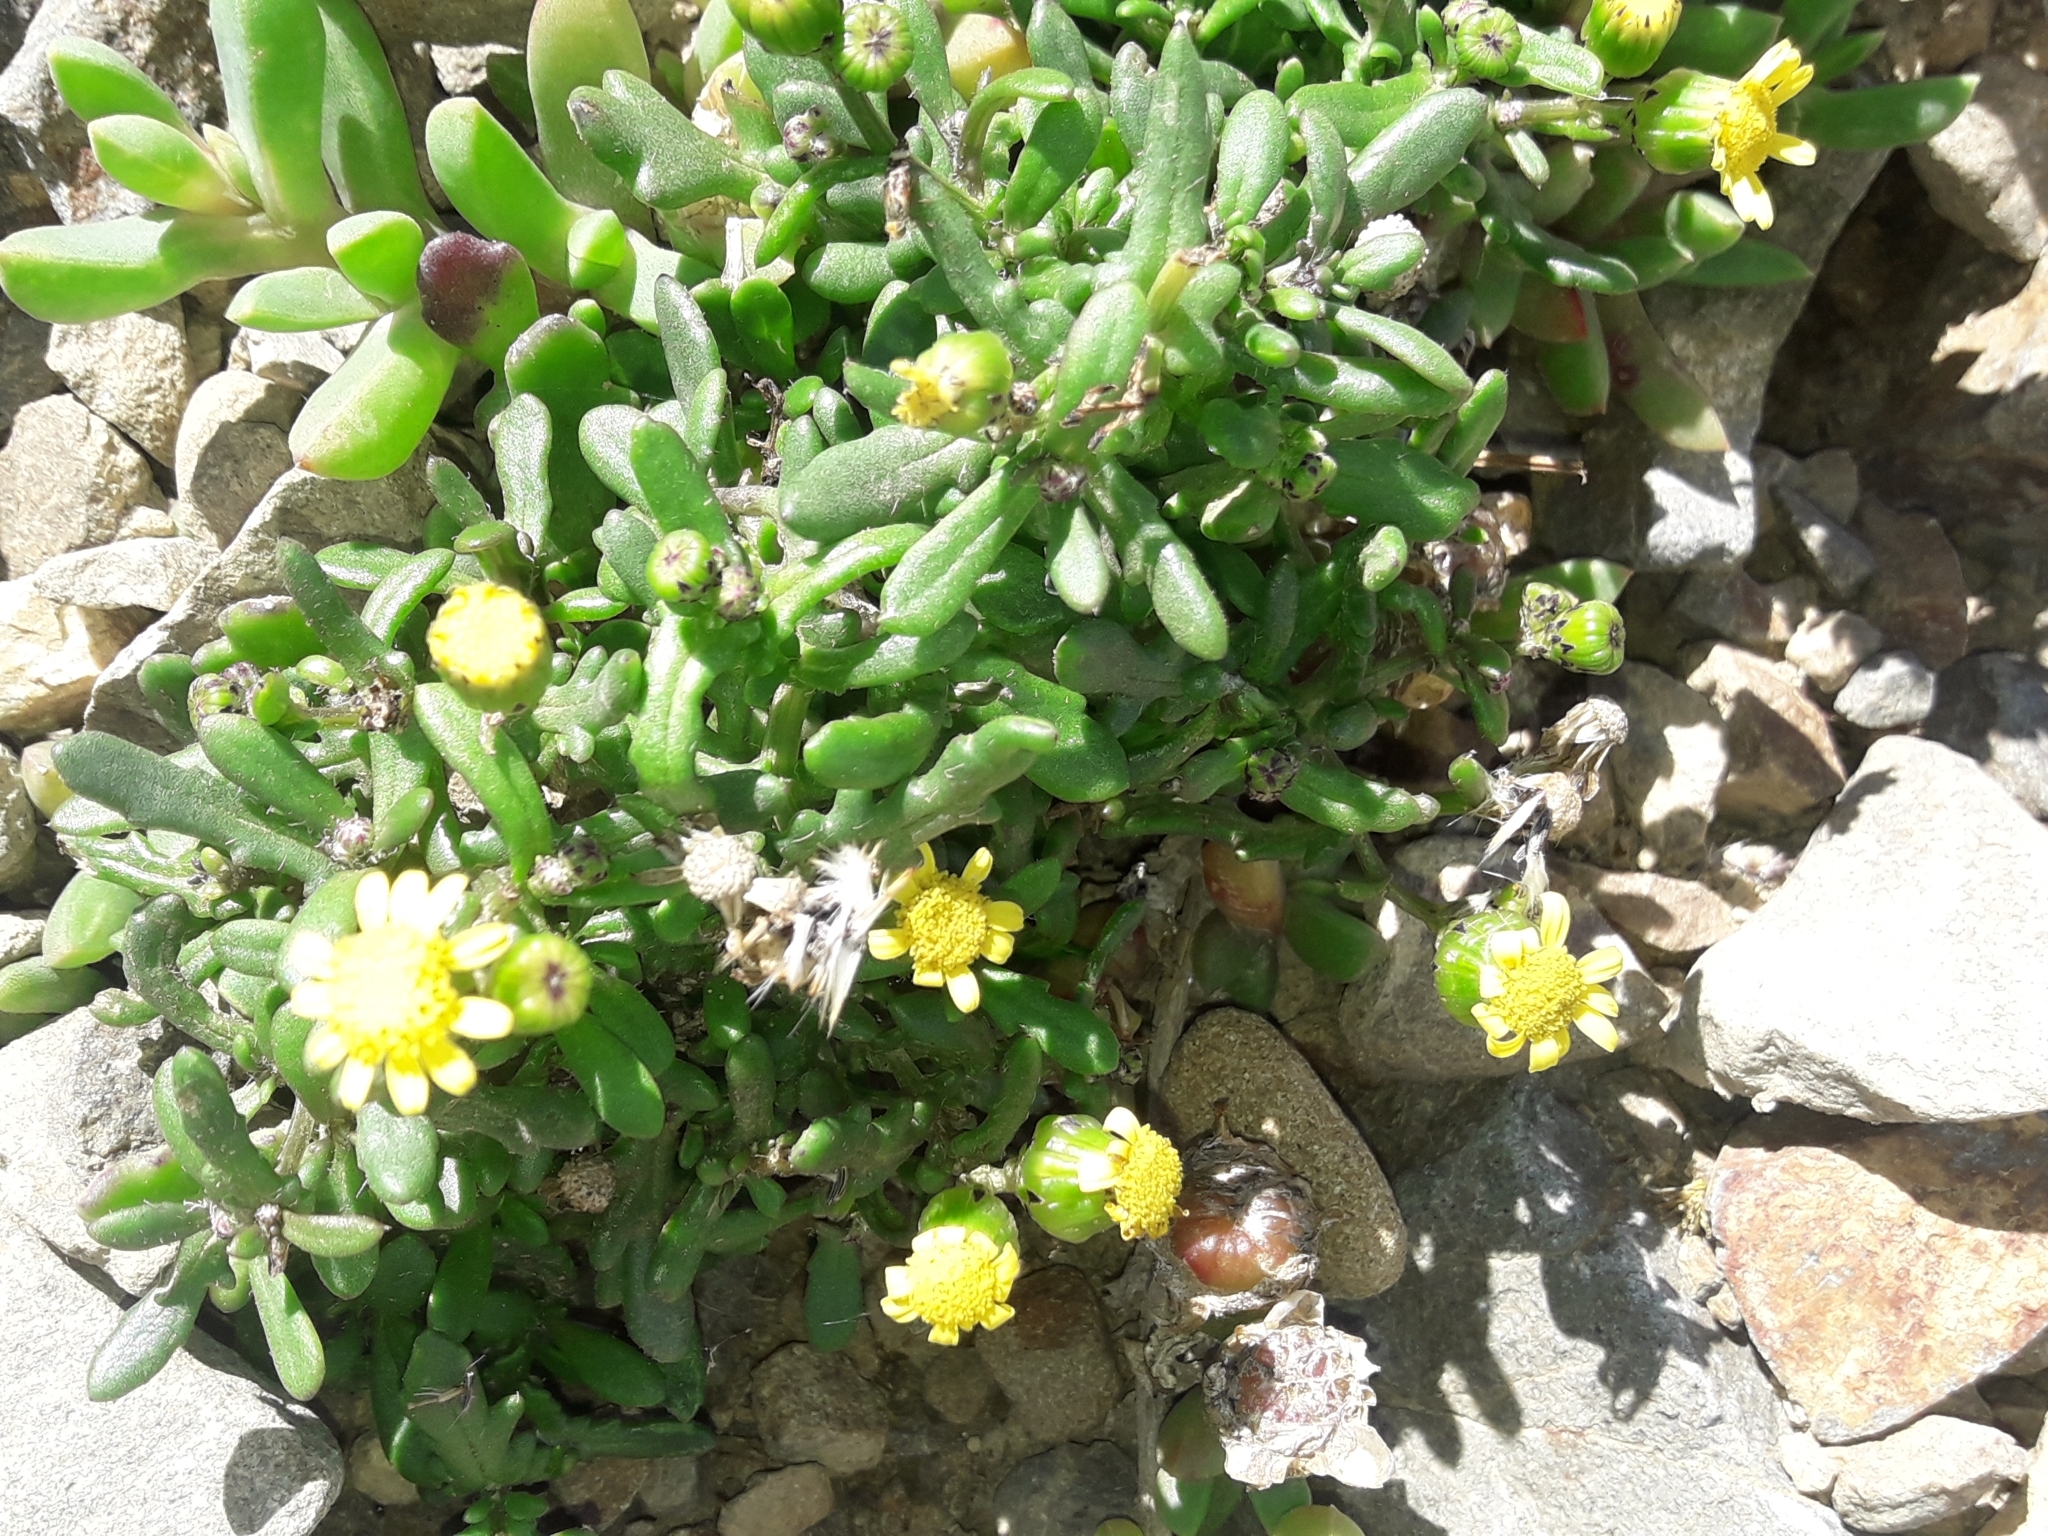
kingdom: Plantae
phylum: Tracheophyta
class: Magnoliopsida
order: Asterales
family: Asteraceae
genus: Senecio
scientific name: Senecio lautus
